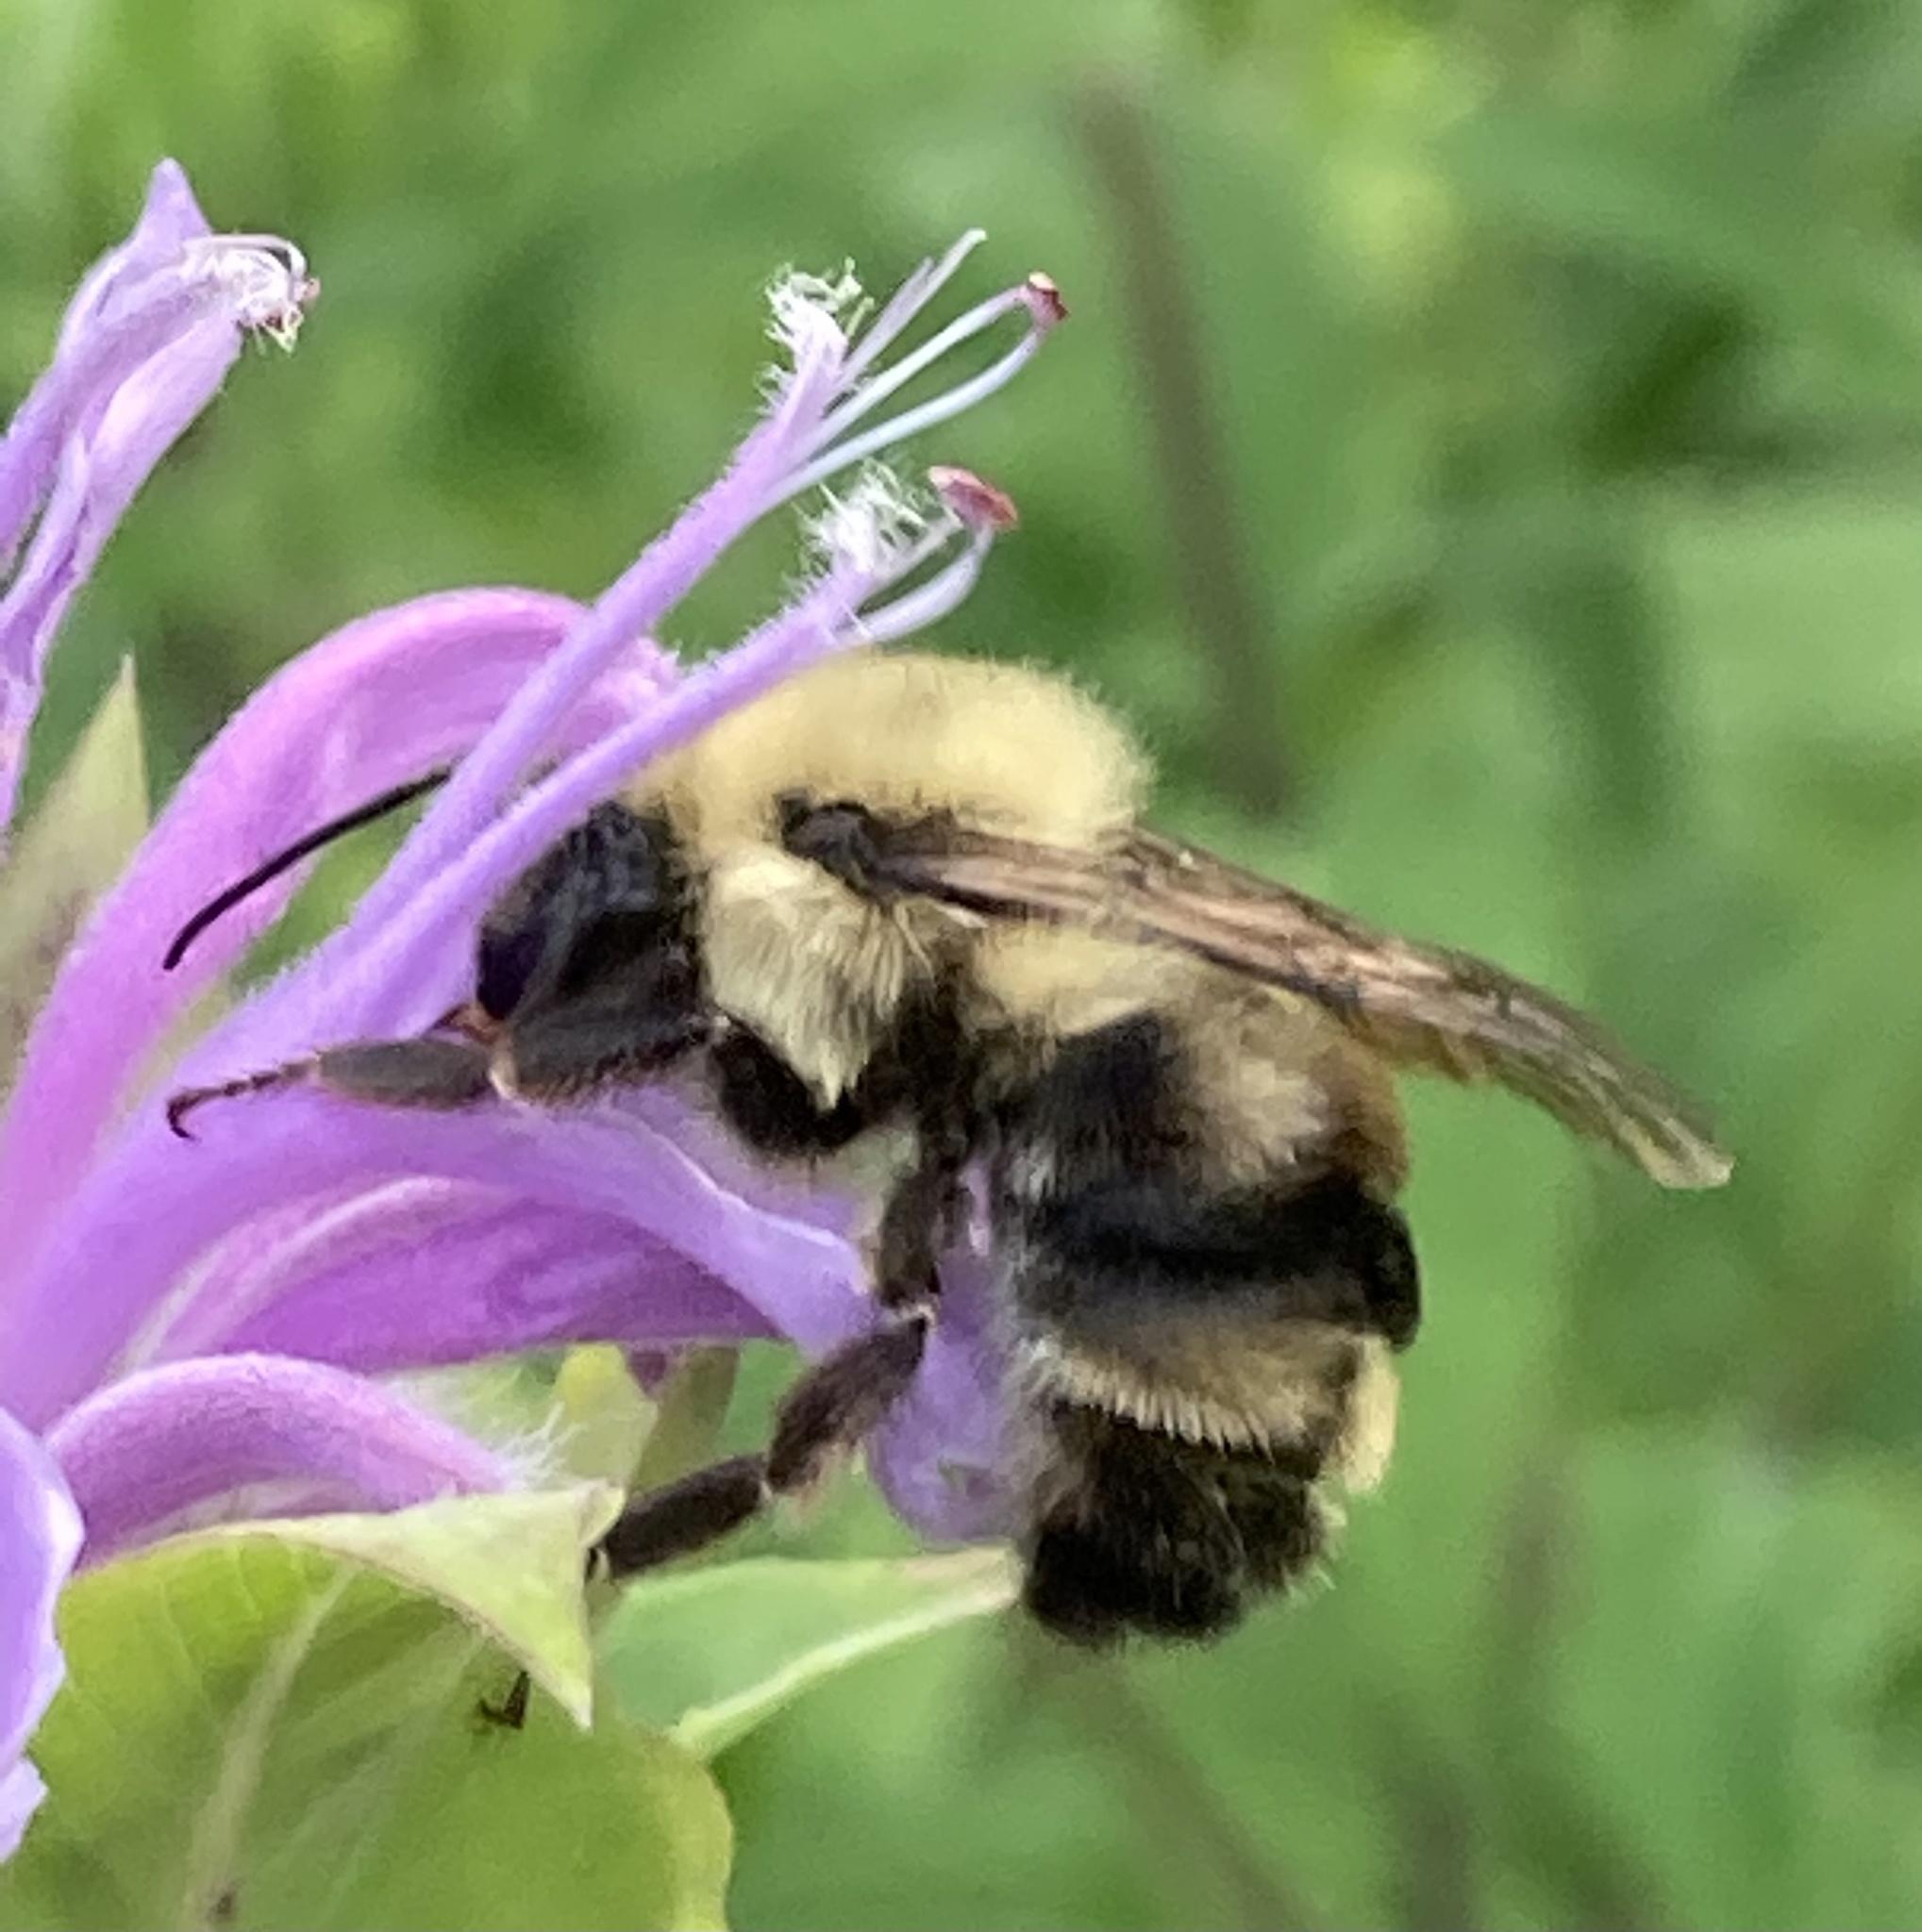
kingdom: Animalia
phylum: Arthropoda
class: Insecta
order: Hymenoptera
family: Apidae
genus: Bombus
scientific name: Bombus bimaculatus
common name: Two-spotted bumble bee
